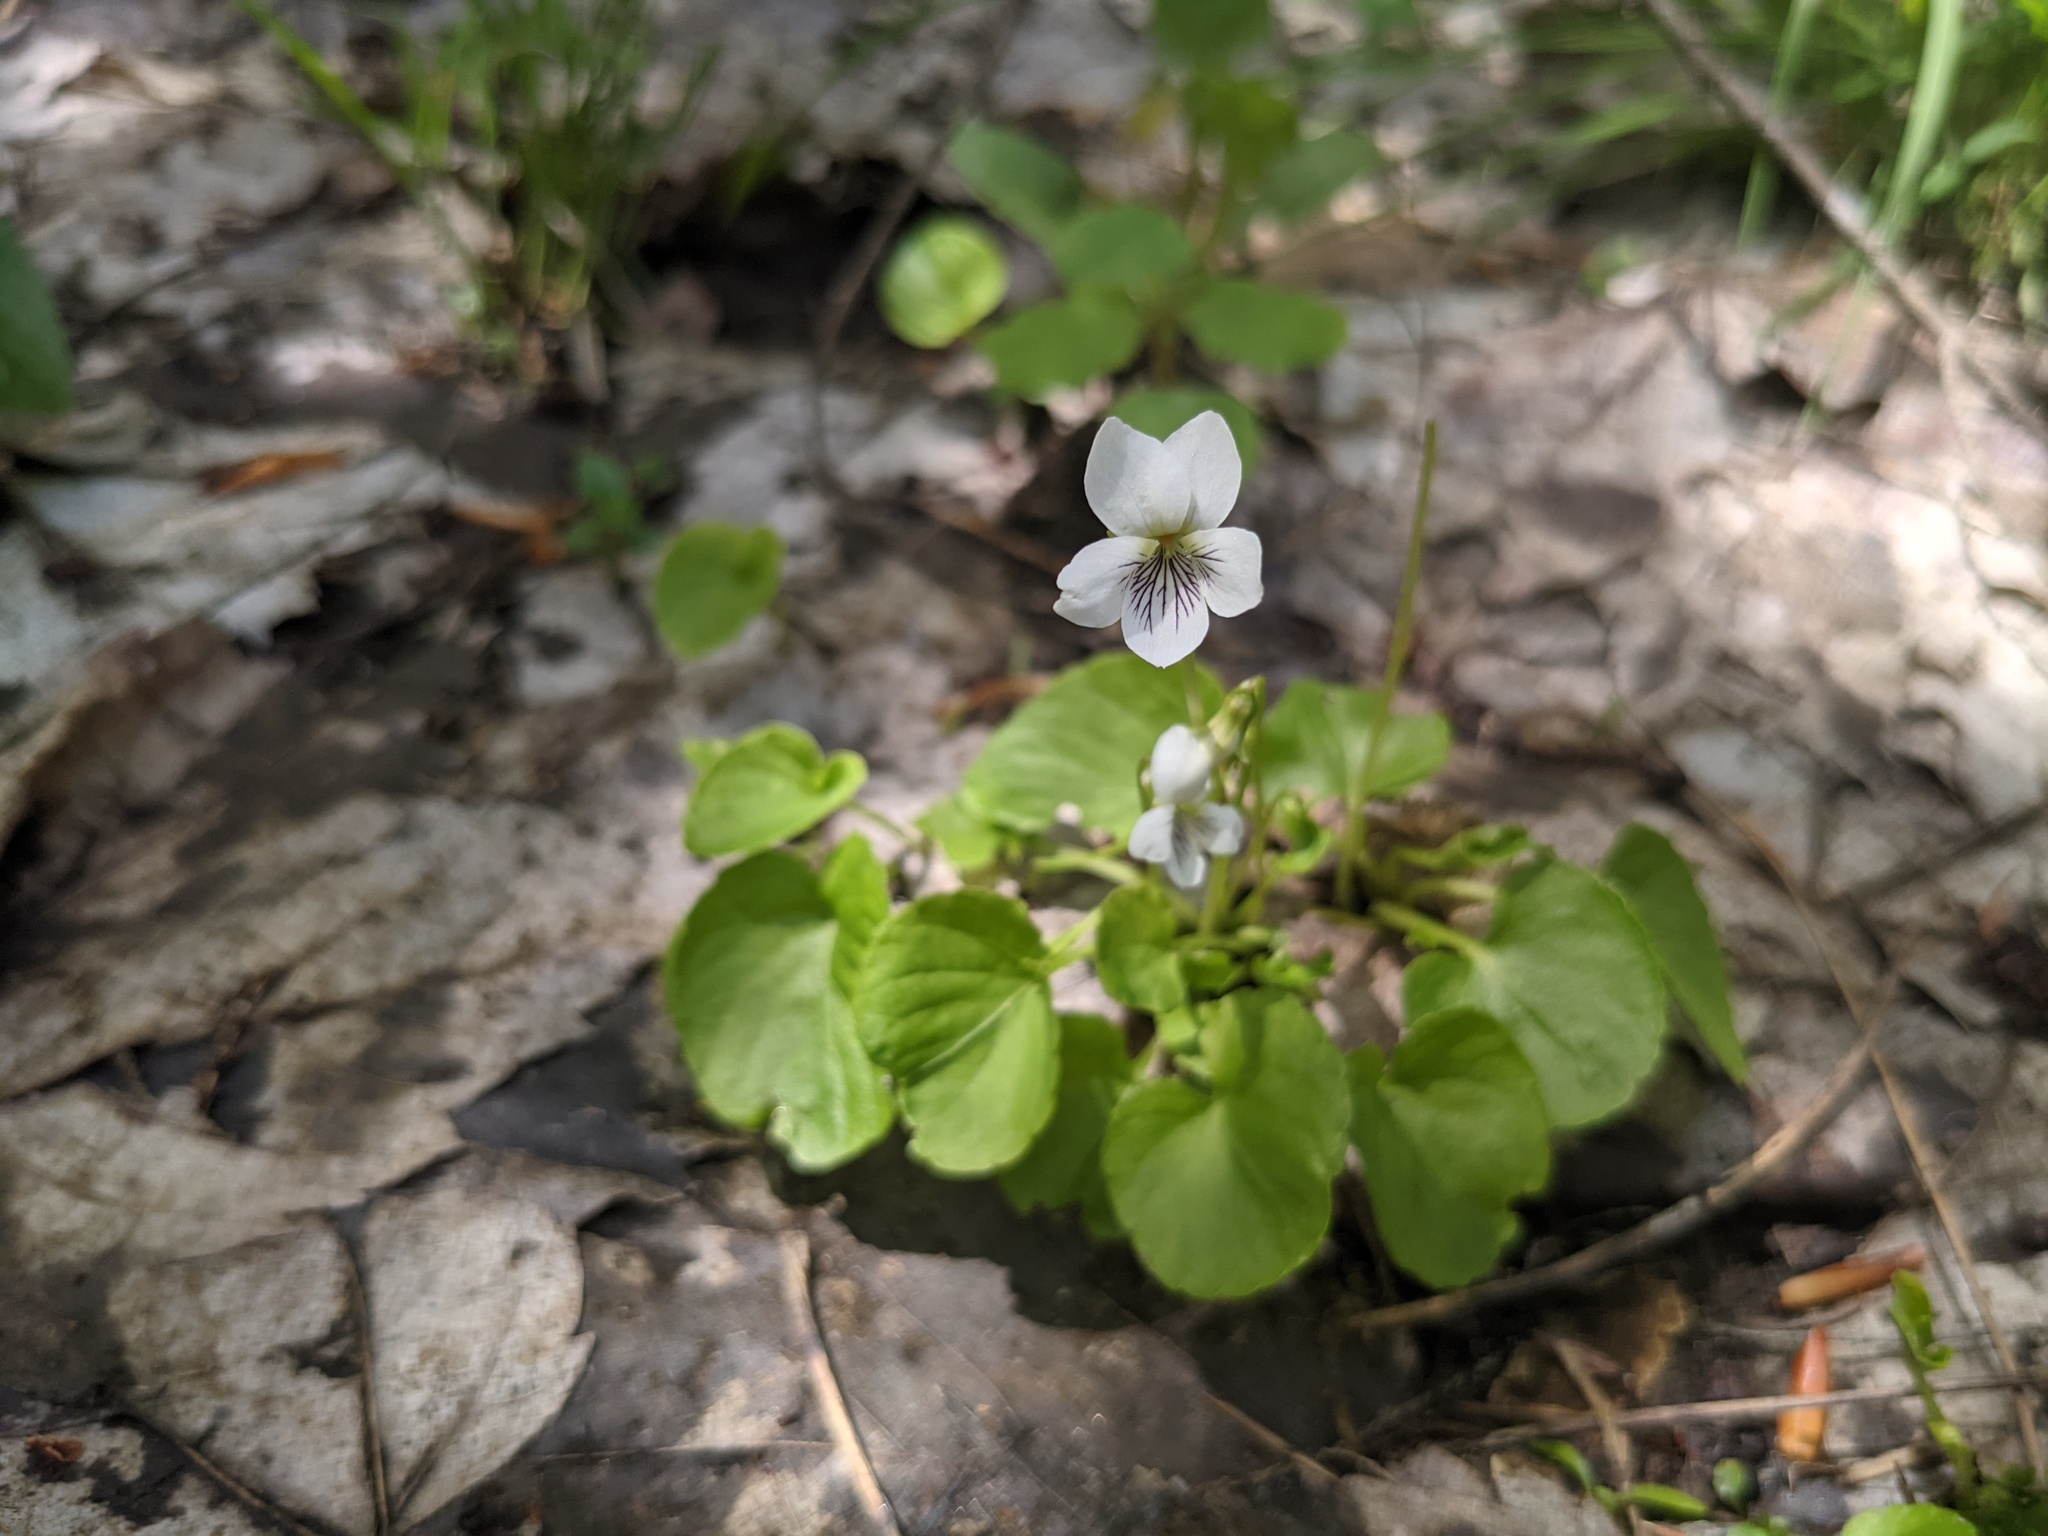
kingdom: Plantae
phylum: Tracheophyta
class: Magnoliopsida
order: Malpighiales
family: Violaceae
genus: Viola
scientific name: Viola minuscula
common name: Northern white violet
